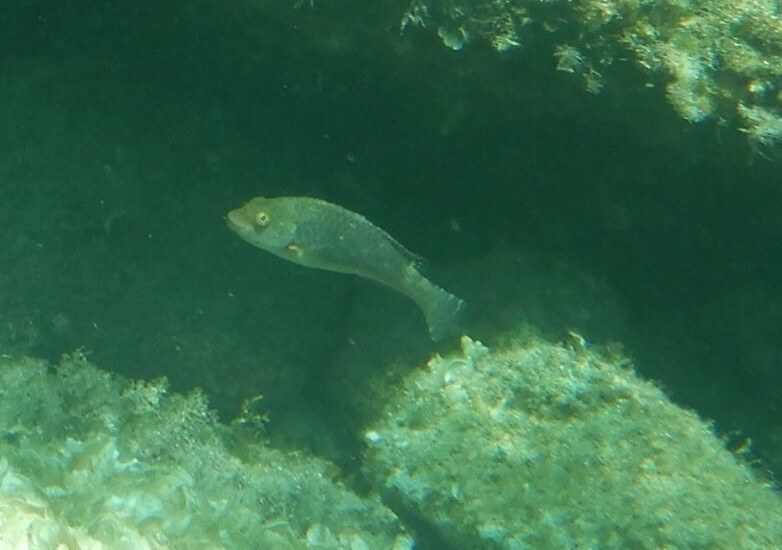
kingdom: Animalia
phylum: Chordata
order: Perciformes
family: Scaridae
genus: Sparisoma
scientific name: Sparisoma cretense
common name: Parrotfish
